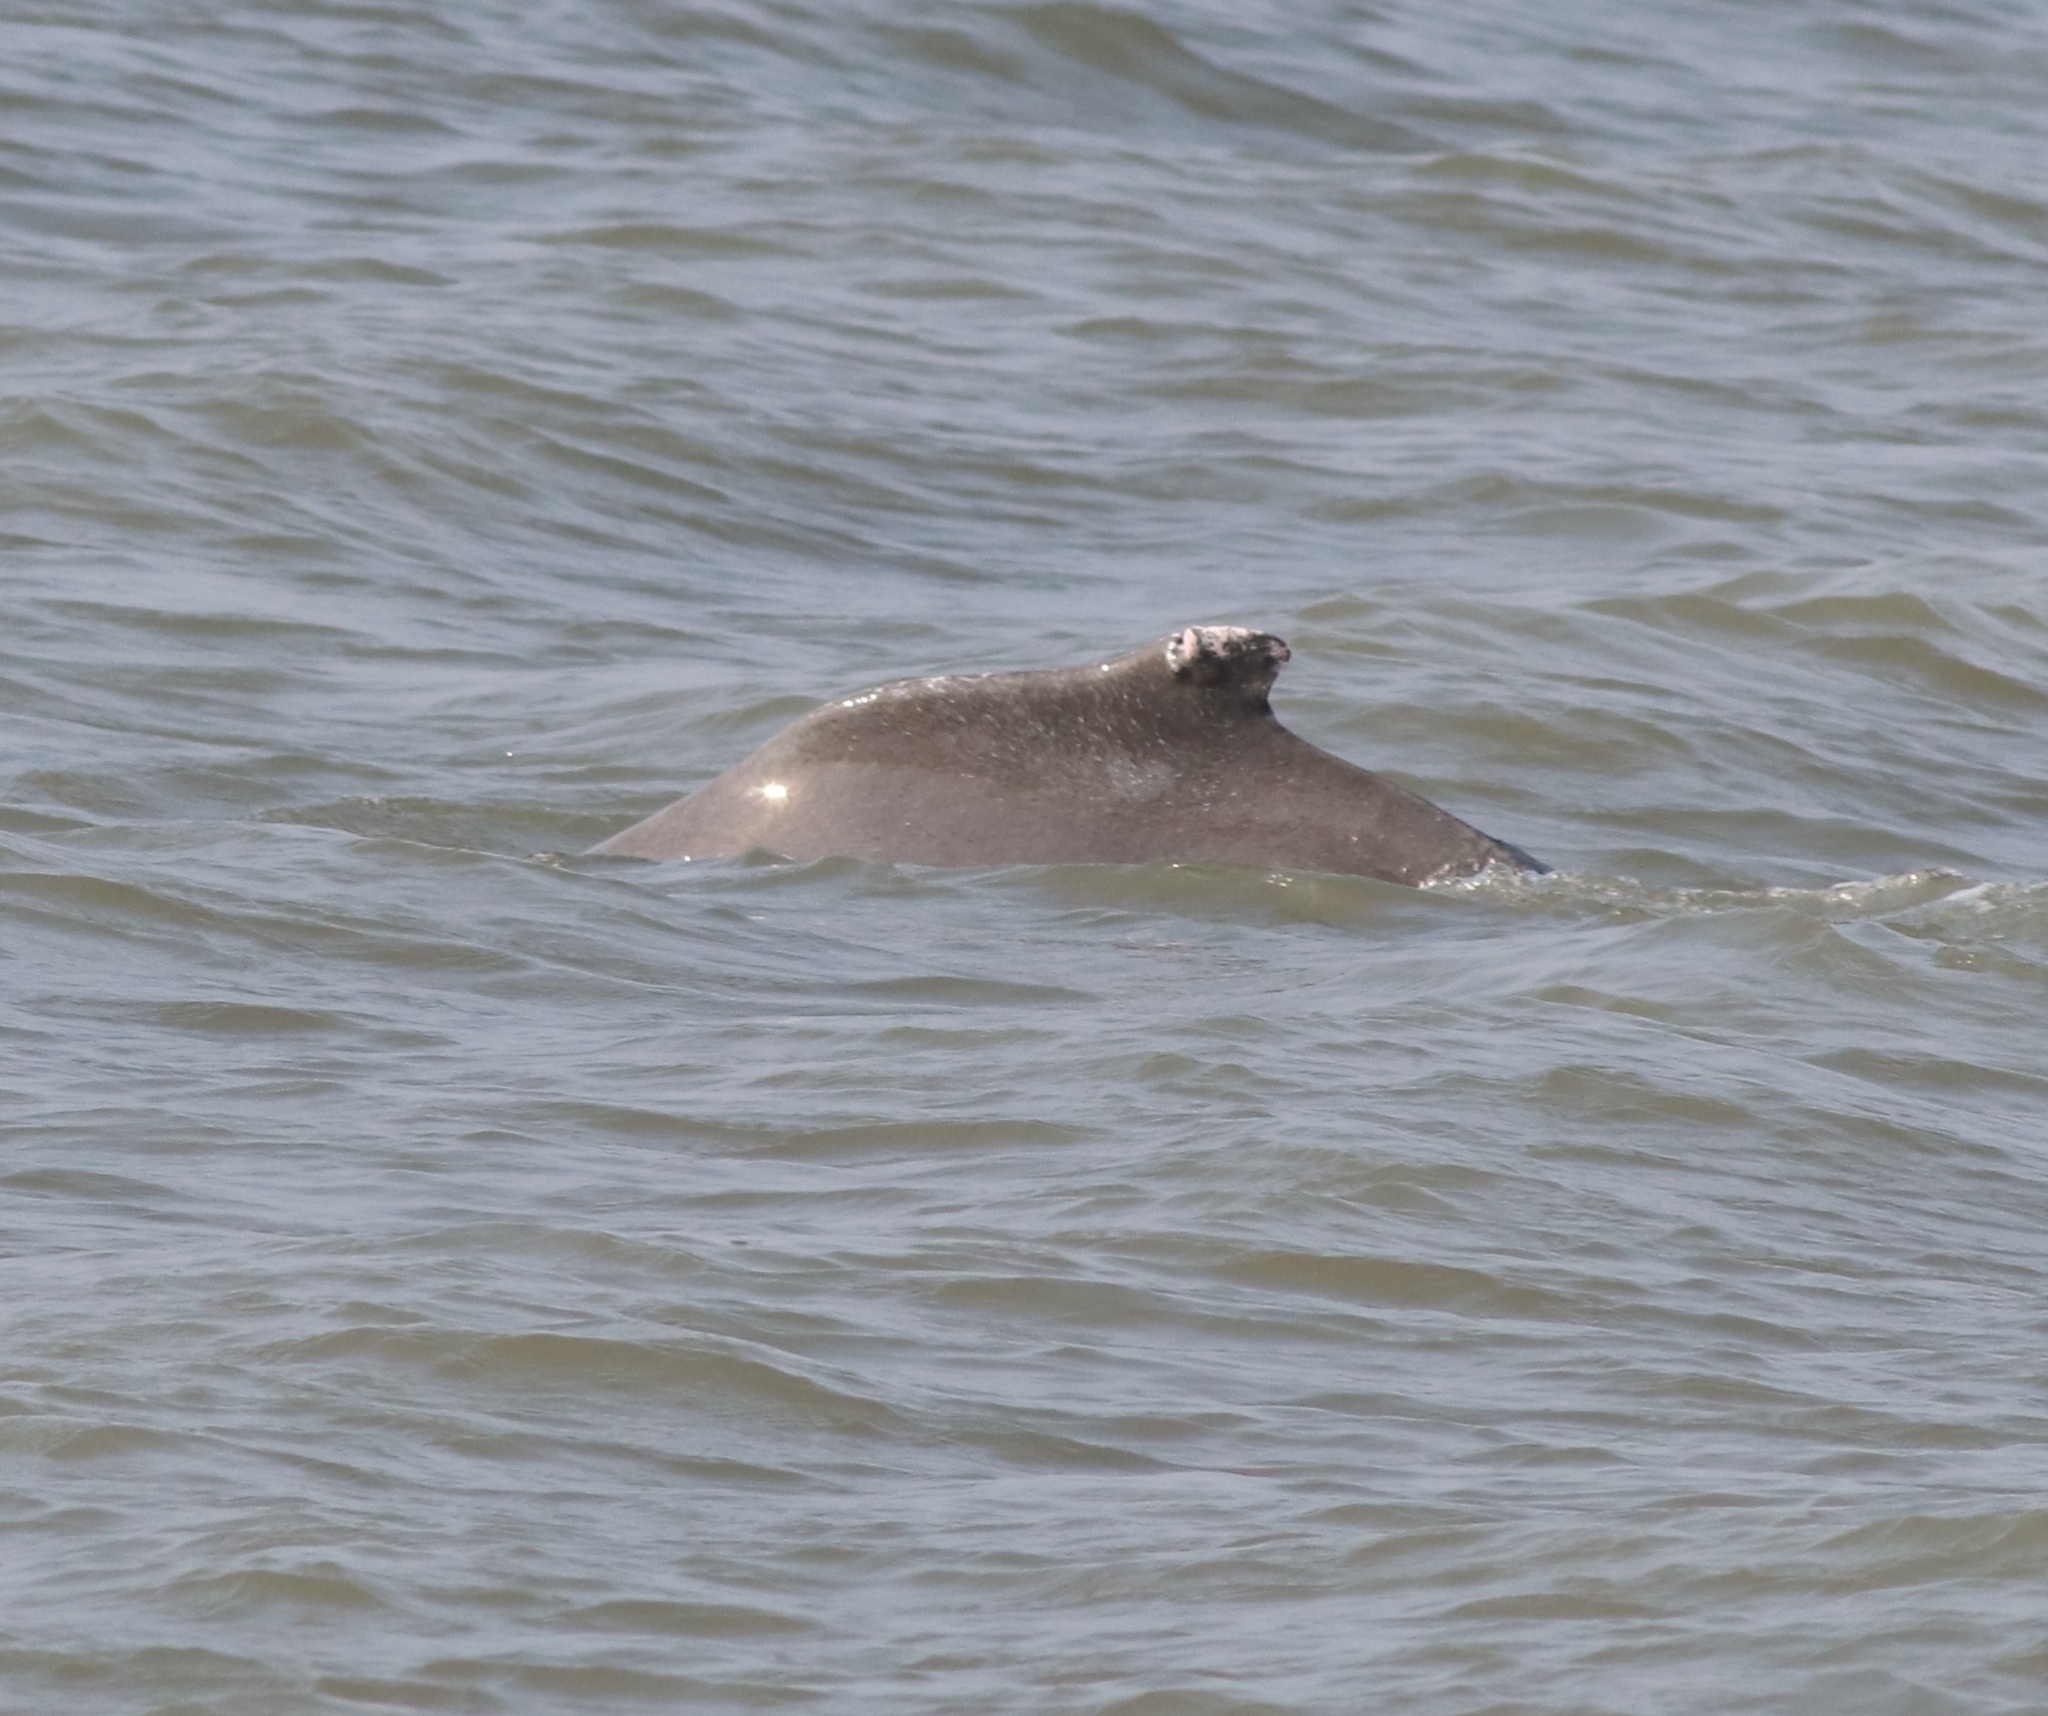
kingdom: Animalia
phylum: Chordata
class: Mammalia
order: Cetacea
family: Delphinidae
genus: Sousa
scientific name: Sousa plumbea
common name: Indian ocean humpback dolphin
